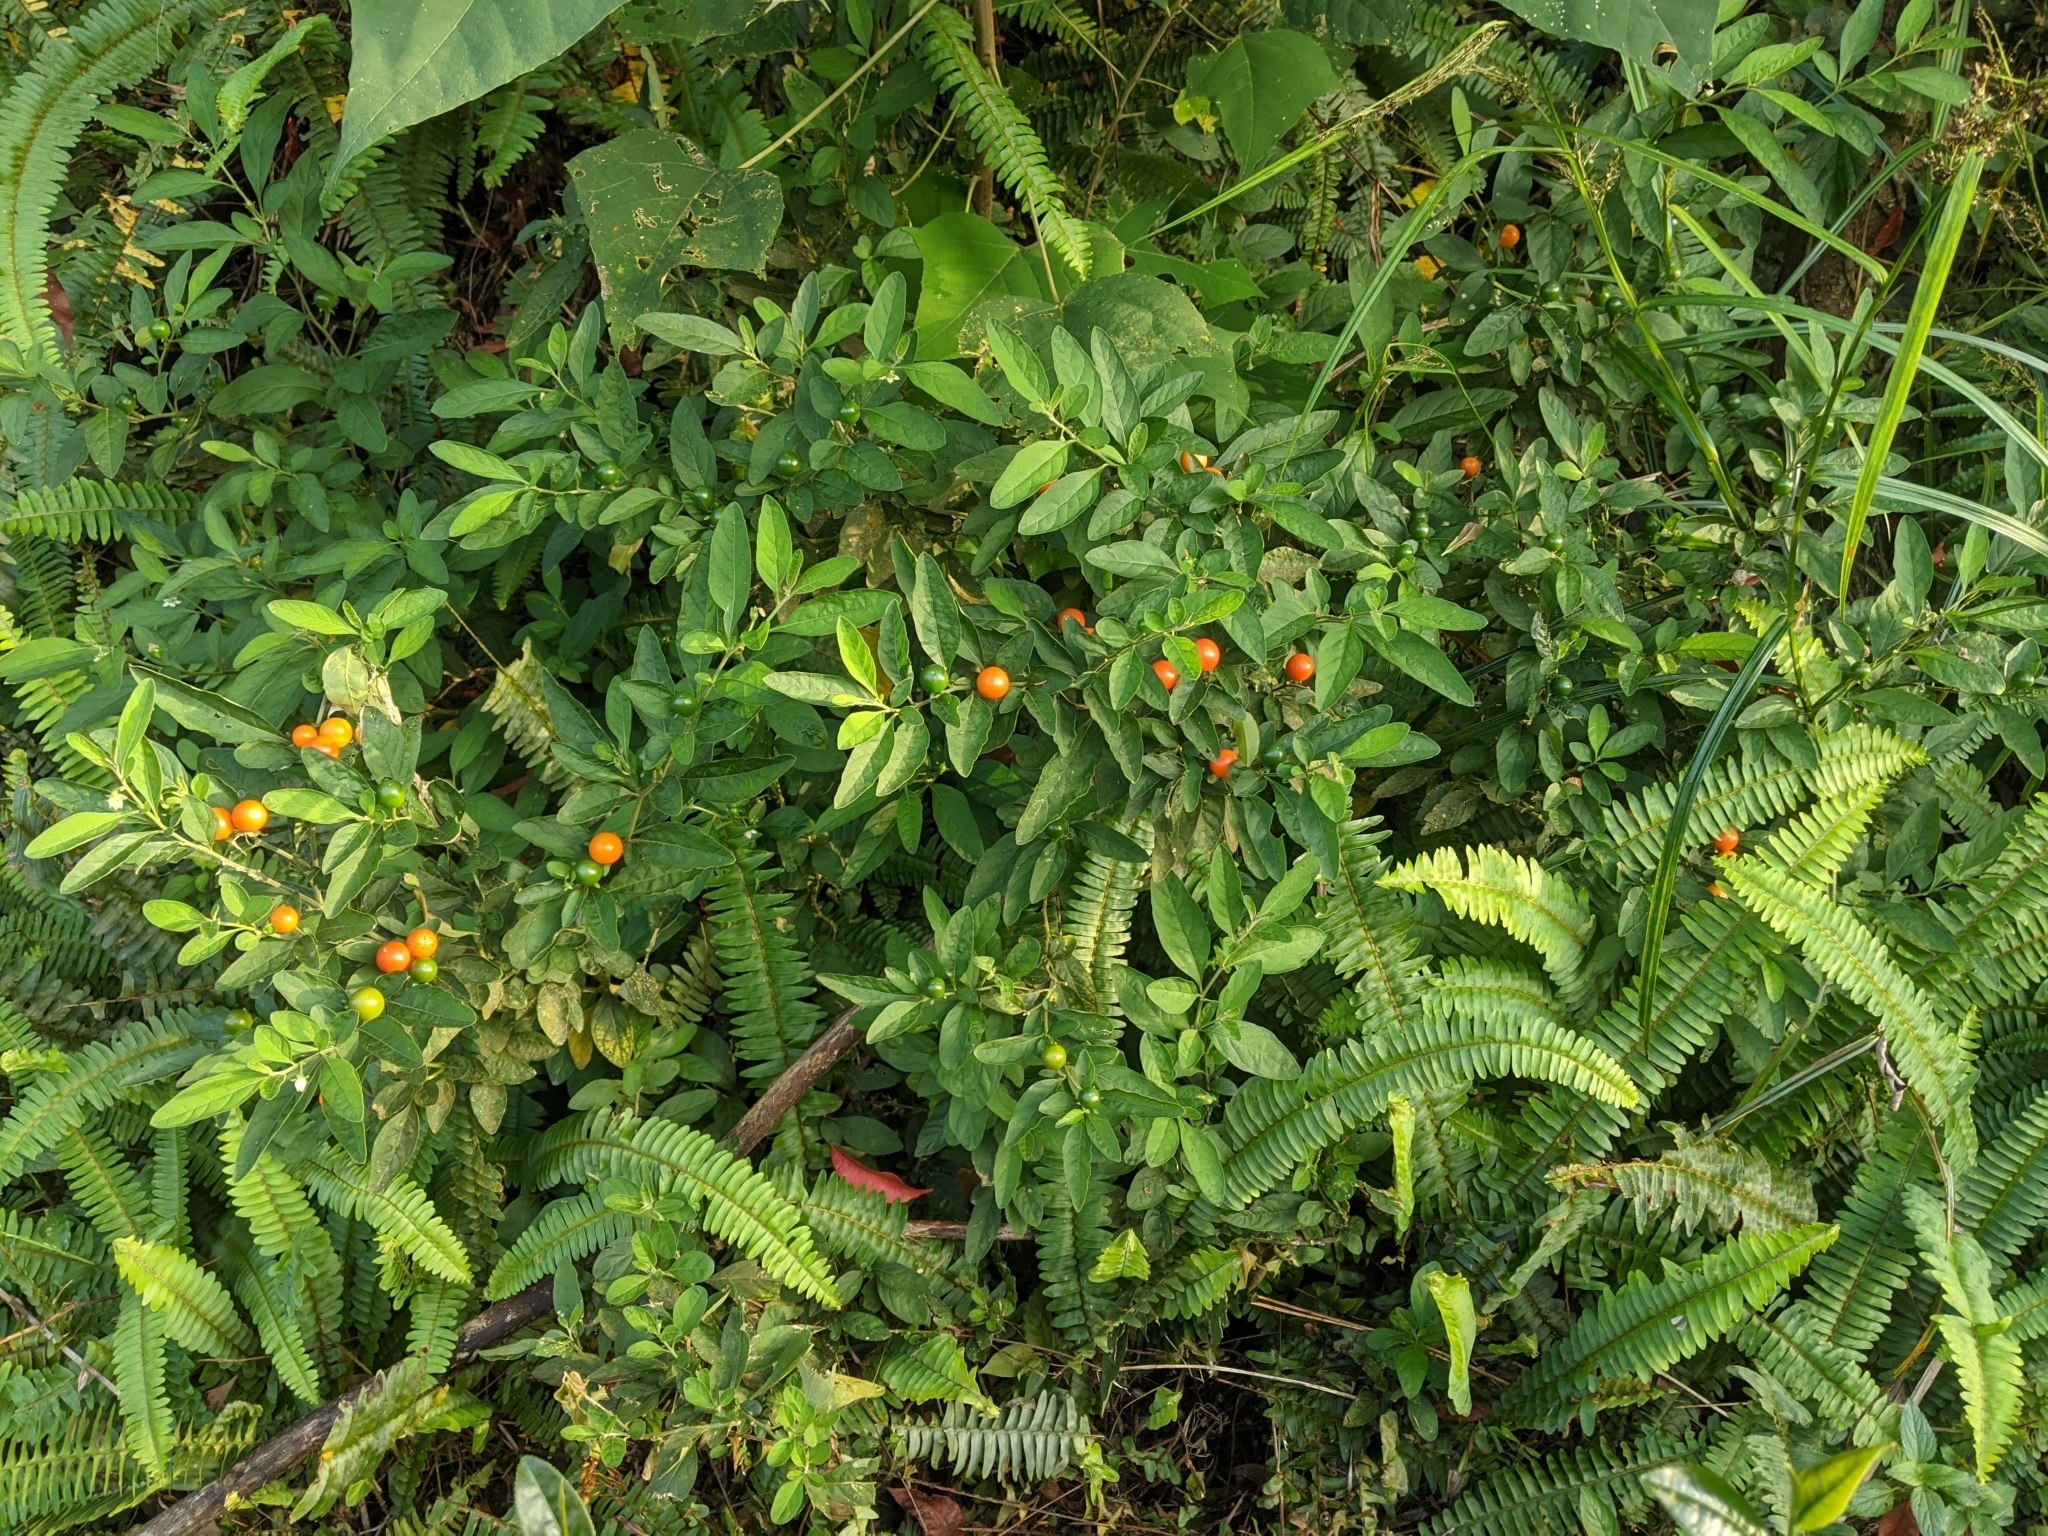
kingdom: Plantae
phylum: Tracheophyta
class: Magnoliopsida
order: Solanales
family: Solanaceae
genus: Solanum
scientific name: Solanum pseudocapsicum
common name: Jerusalem cherry
